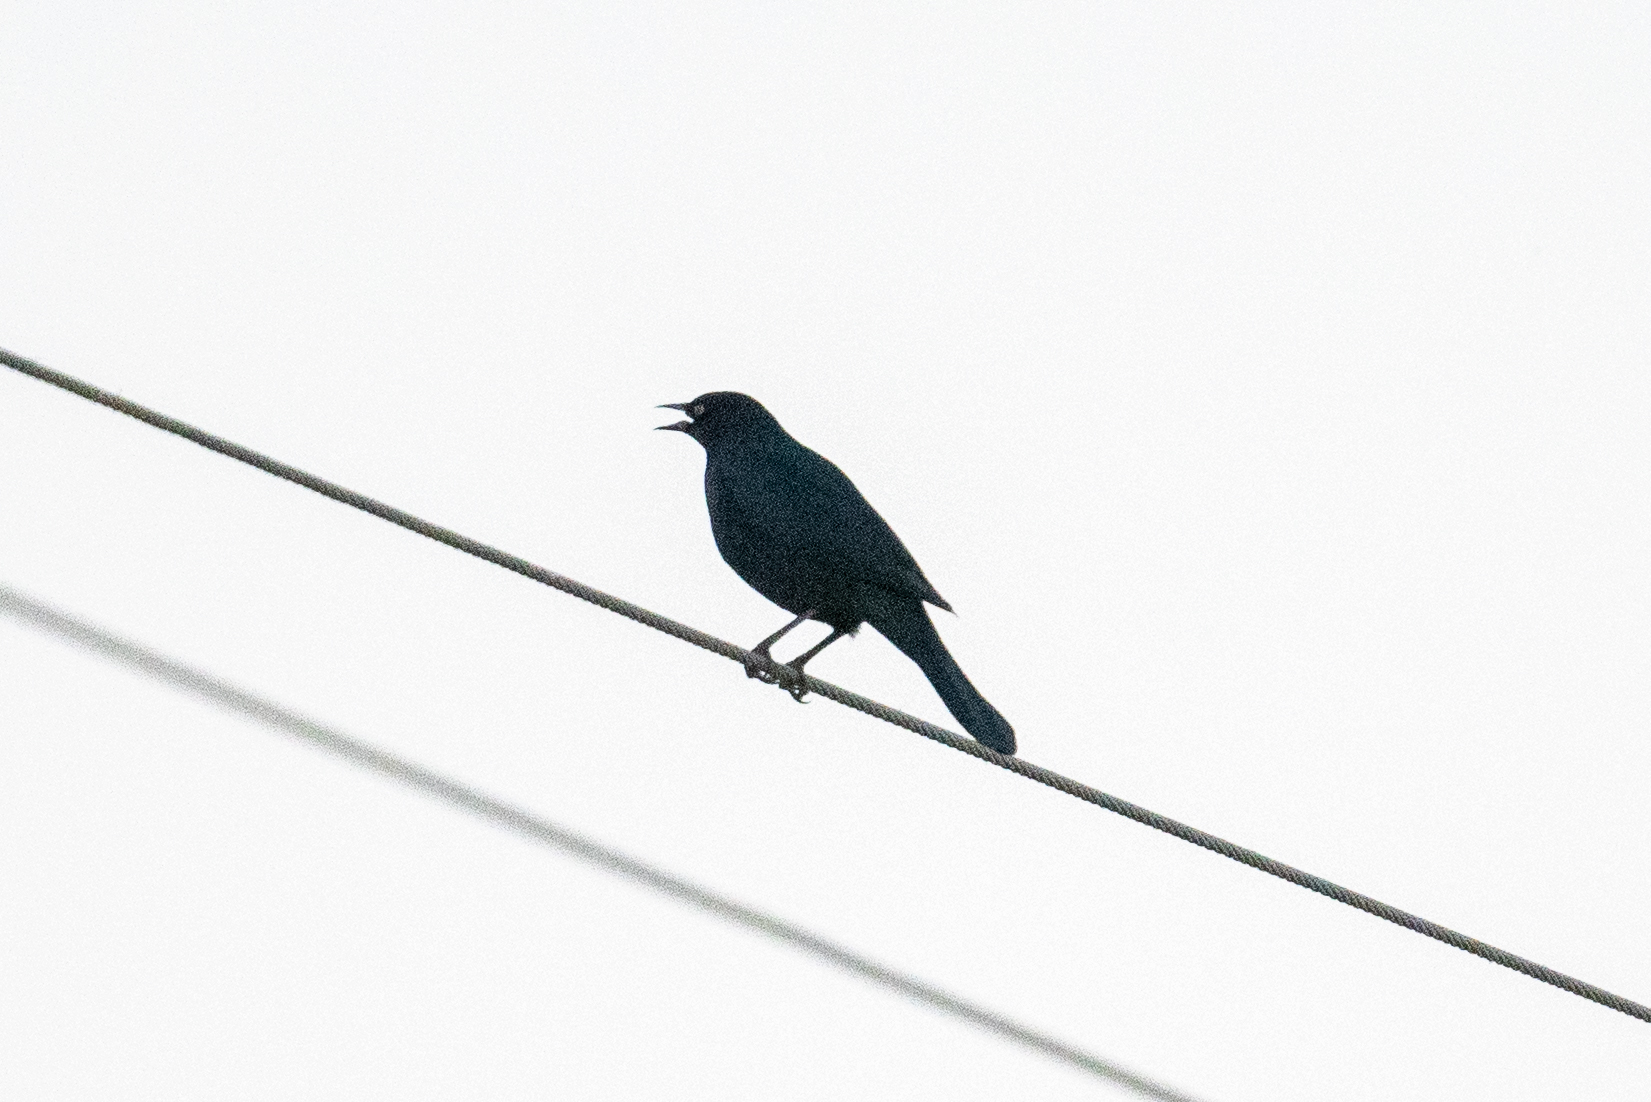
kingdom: Animalia
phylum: Chordata
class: Aves
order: Passeriformes
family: Icteridae
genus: Euphagus
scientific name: Euphagus cyanocephalus
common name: Brewer's blackbird
